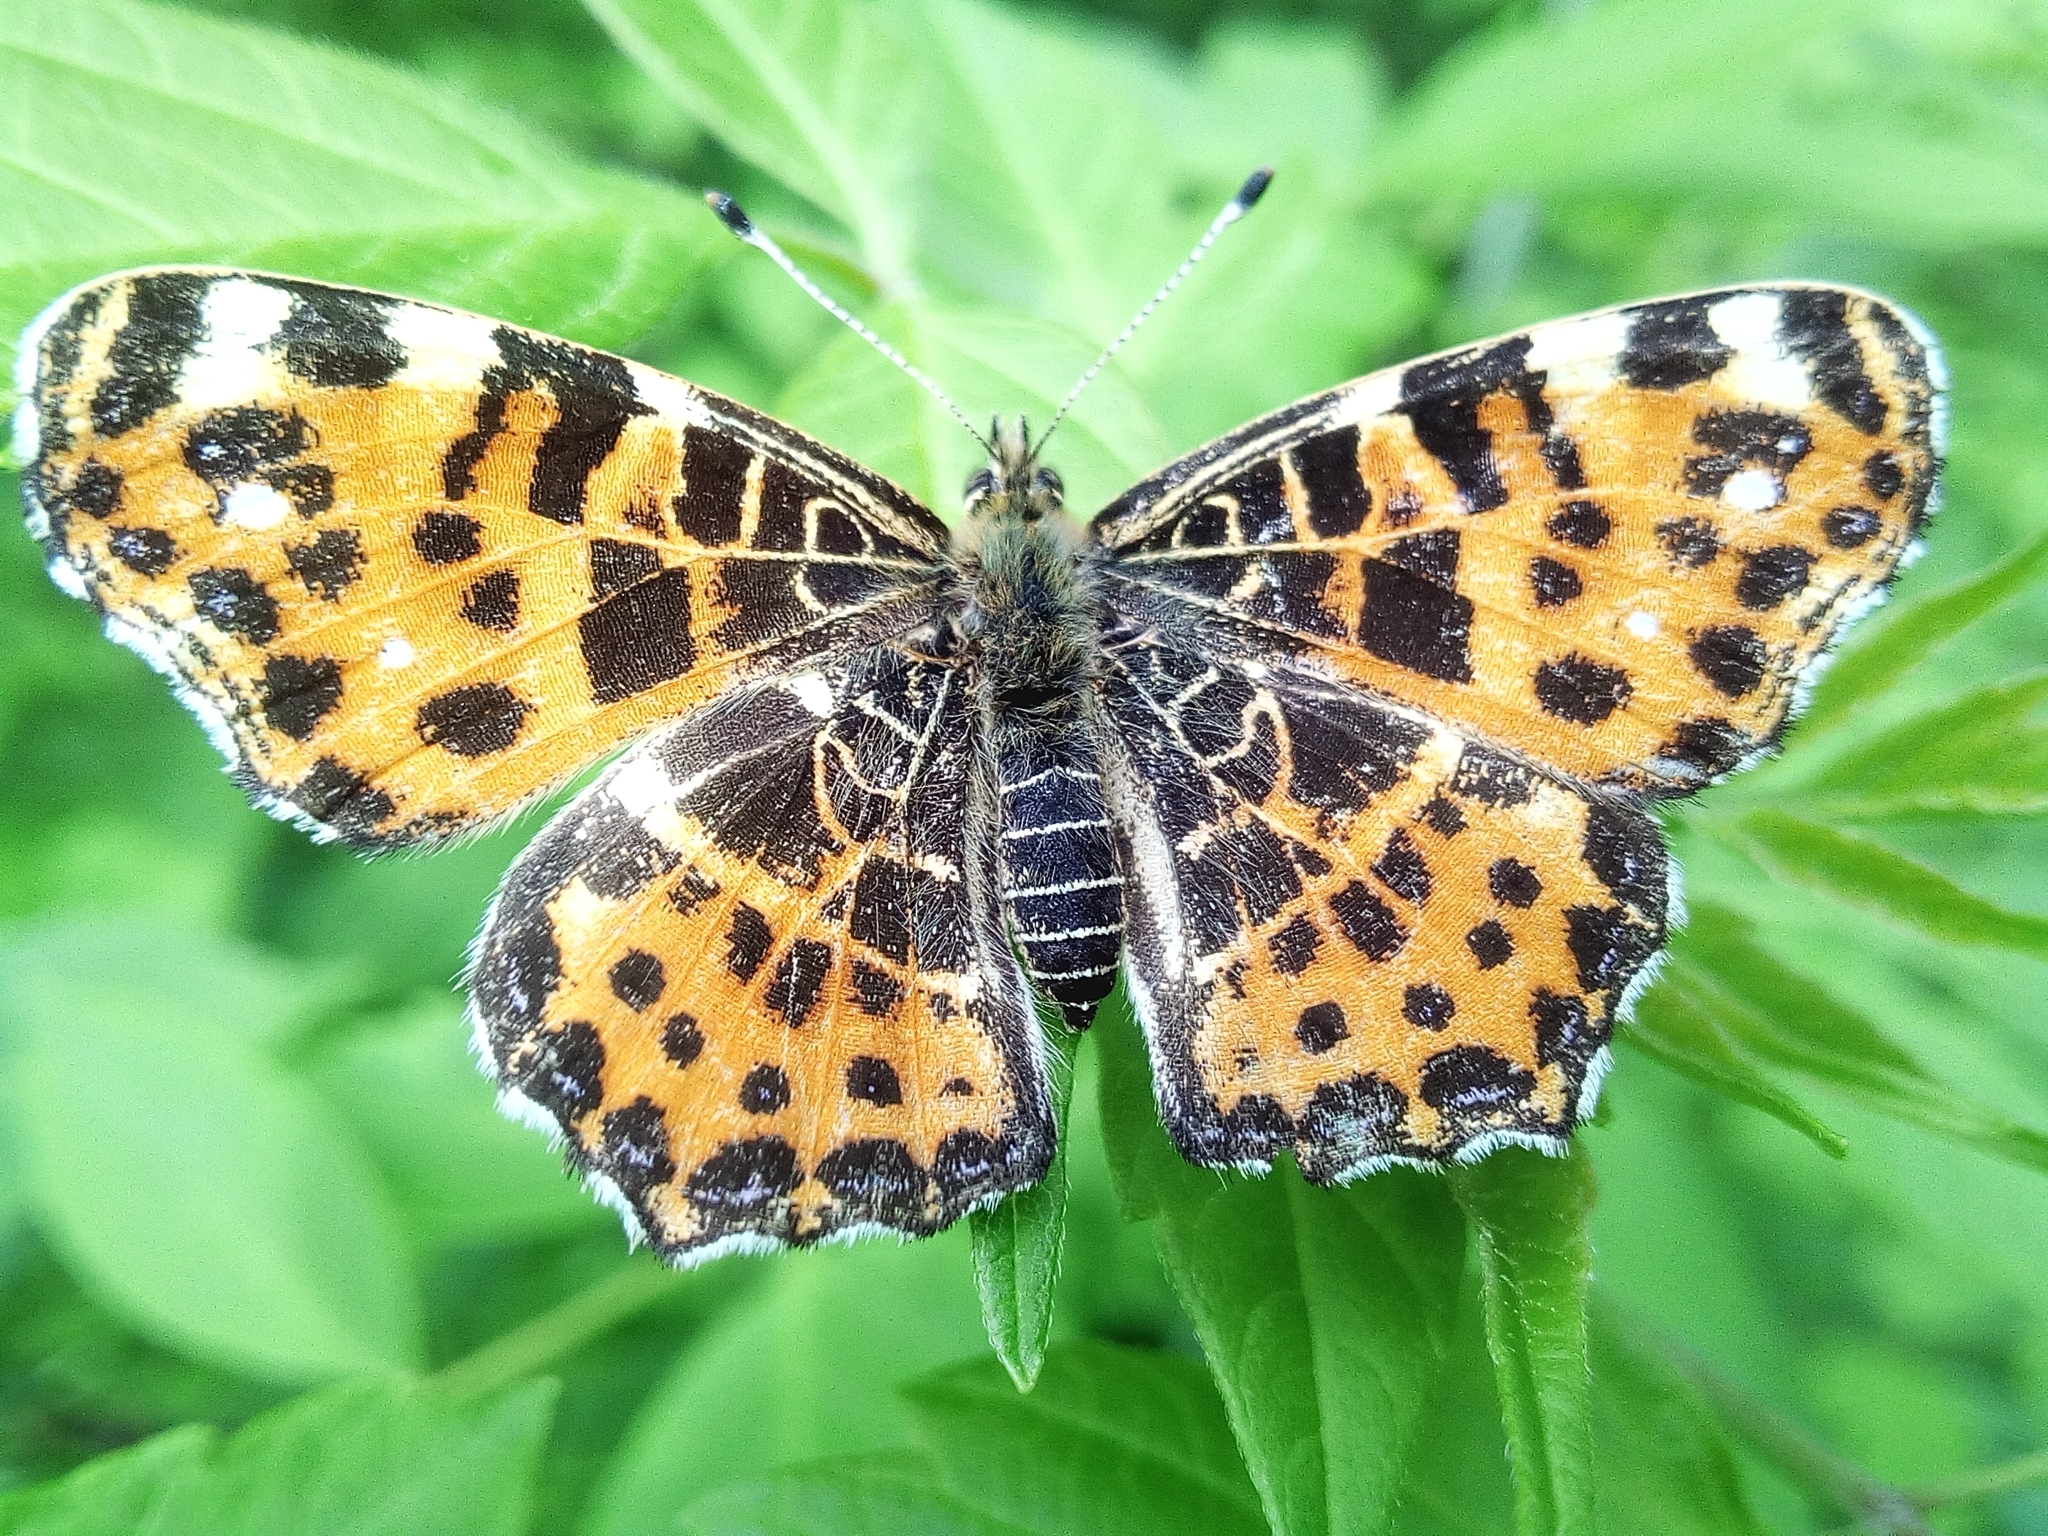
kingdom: Animalia
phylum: Arthropoda
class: Insecta
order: Lepidoptera
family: Nymphalidae
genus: Araschnia
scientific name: Araschnia levana
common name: Map butterfly
